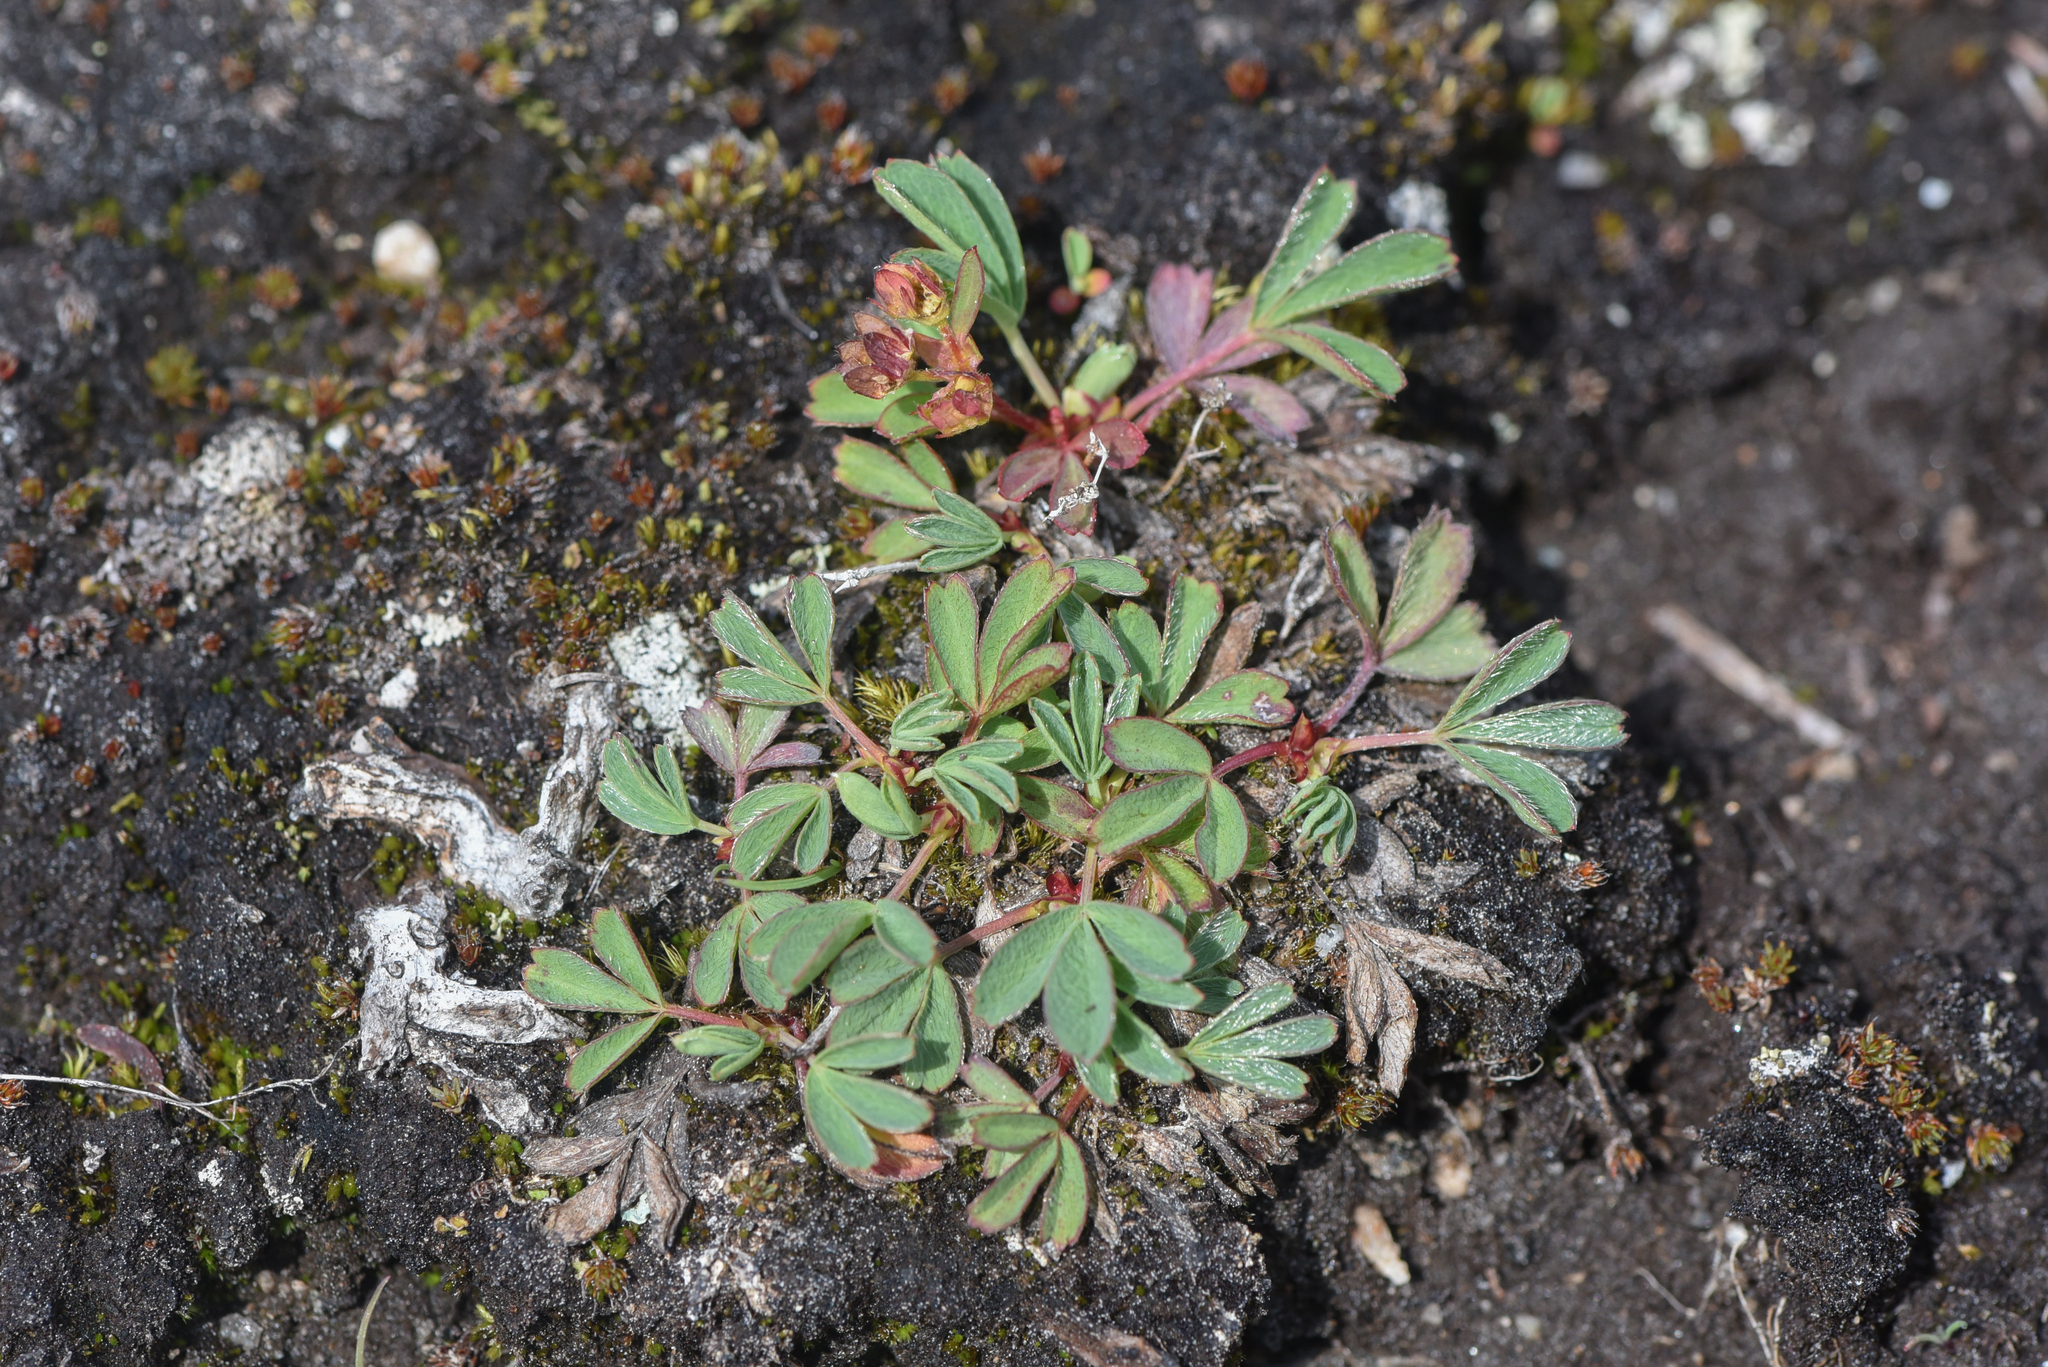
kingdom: Plantae
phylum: Tracheophyta
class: Magnoliopsida
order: Rosales
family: Rosaceae
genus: Sibbaldia
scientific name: Sibbaldia procumbens
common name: Creeping sibbaldia
